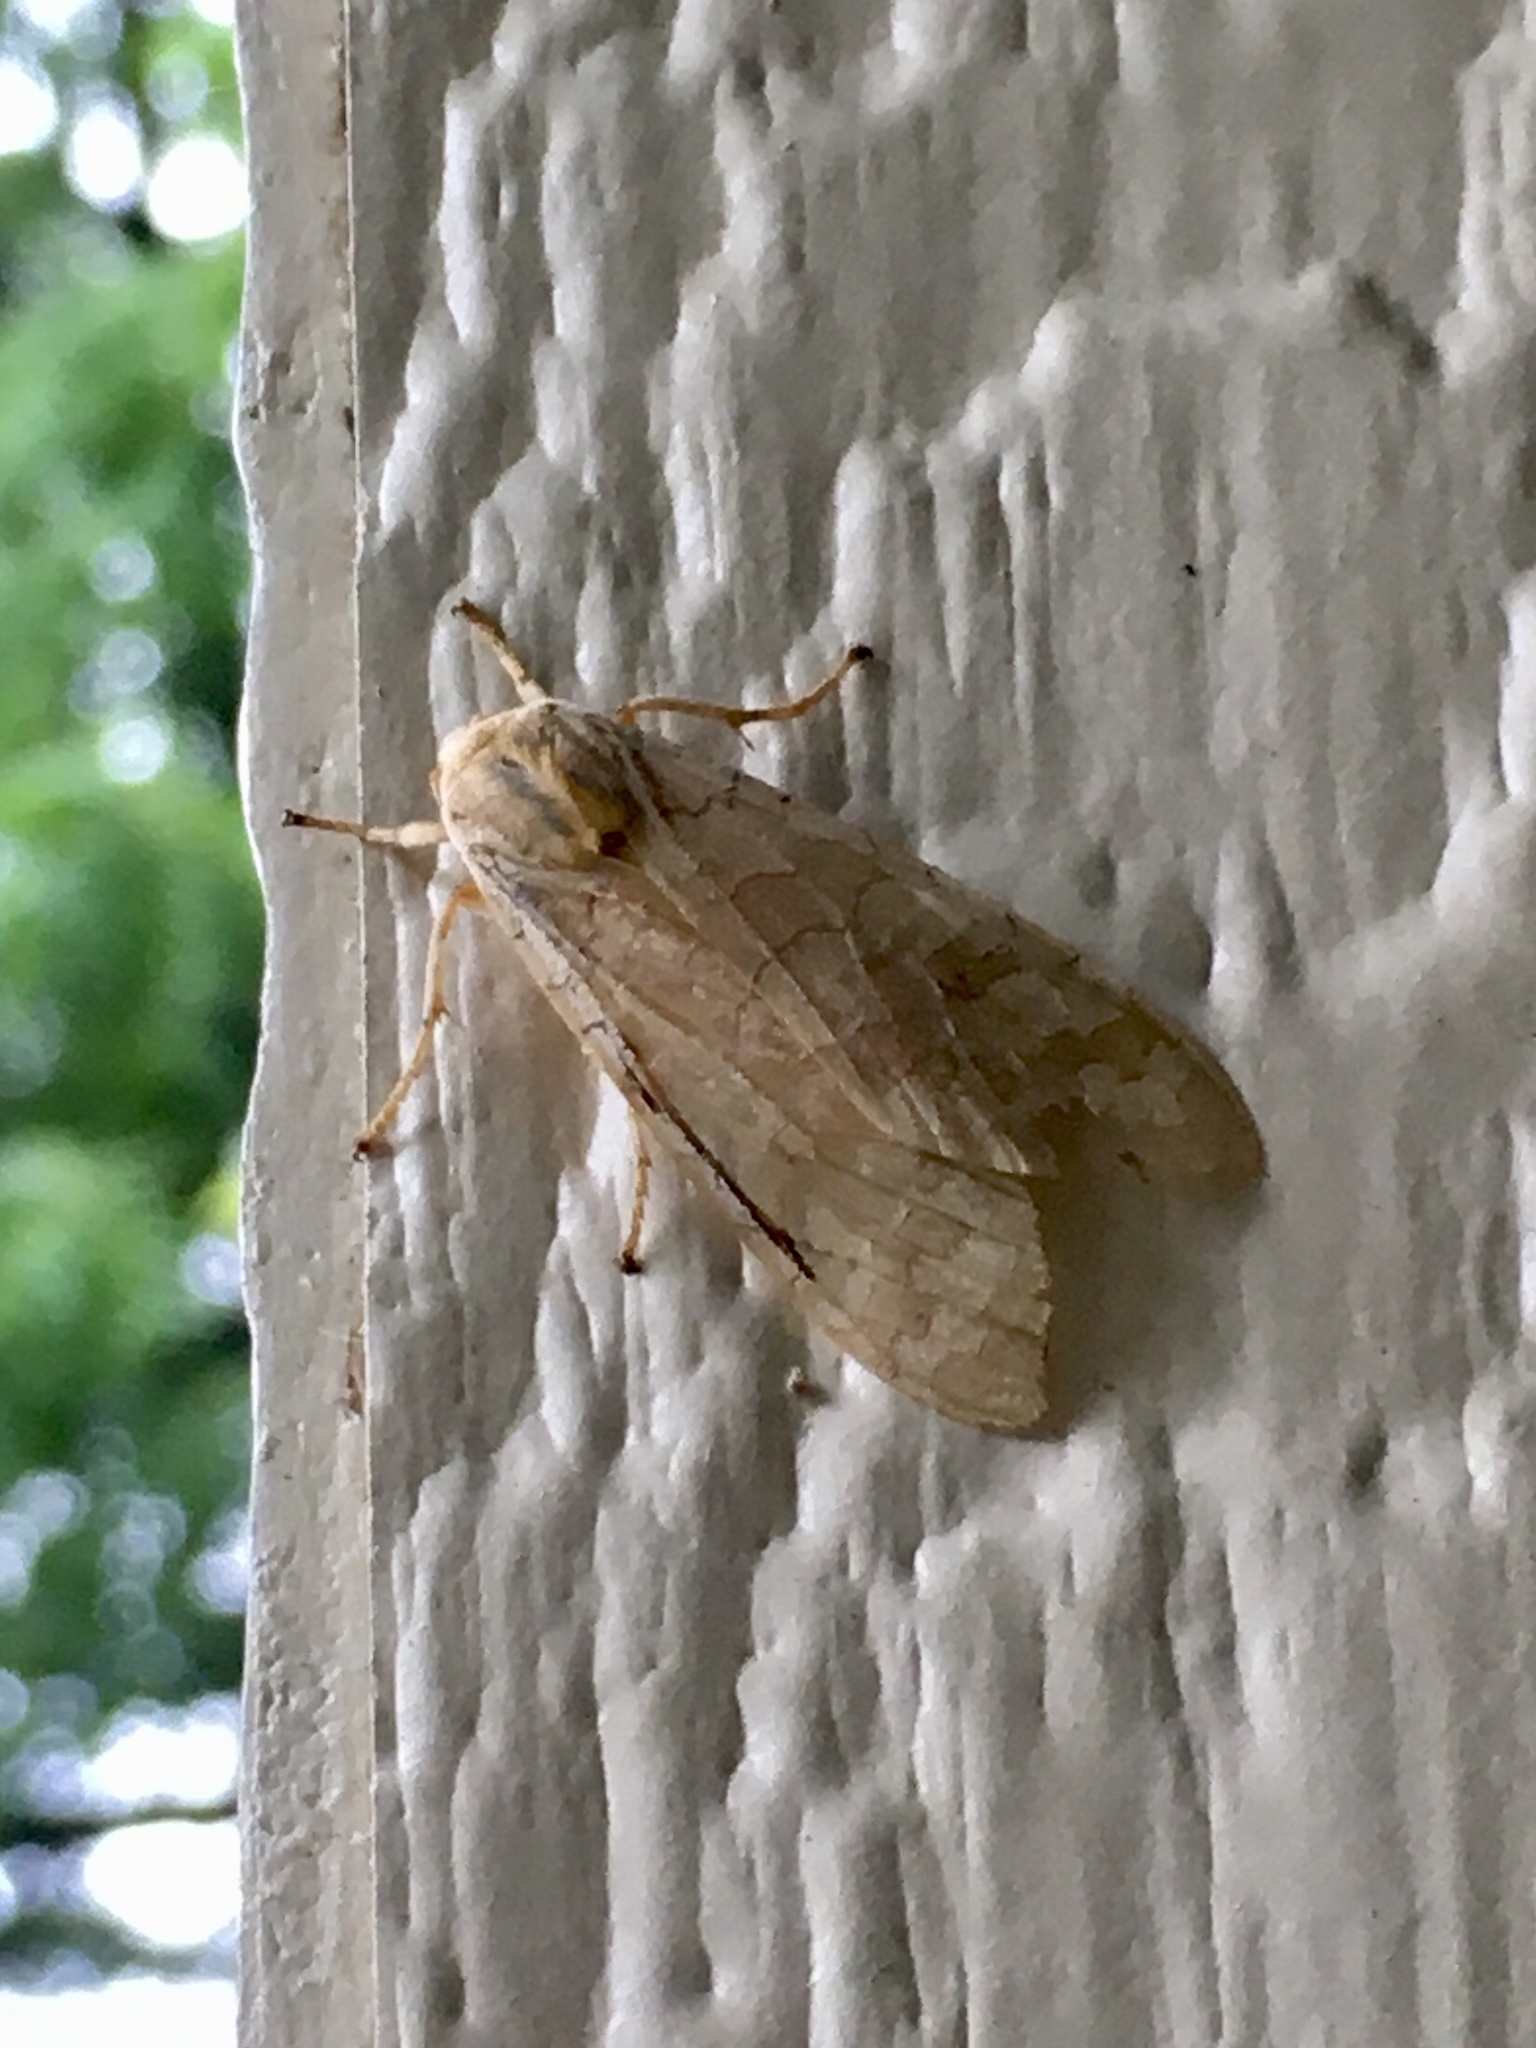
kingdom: Animalia
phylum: Arthropoda
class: Insecta
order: Lepidoptera
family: Erebidae
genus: Halysidota
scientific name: Halysidota tessellaris
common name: Banded tussock moth
